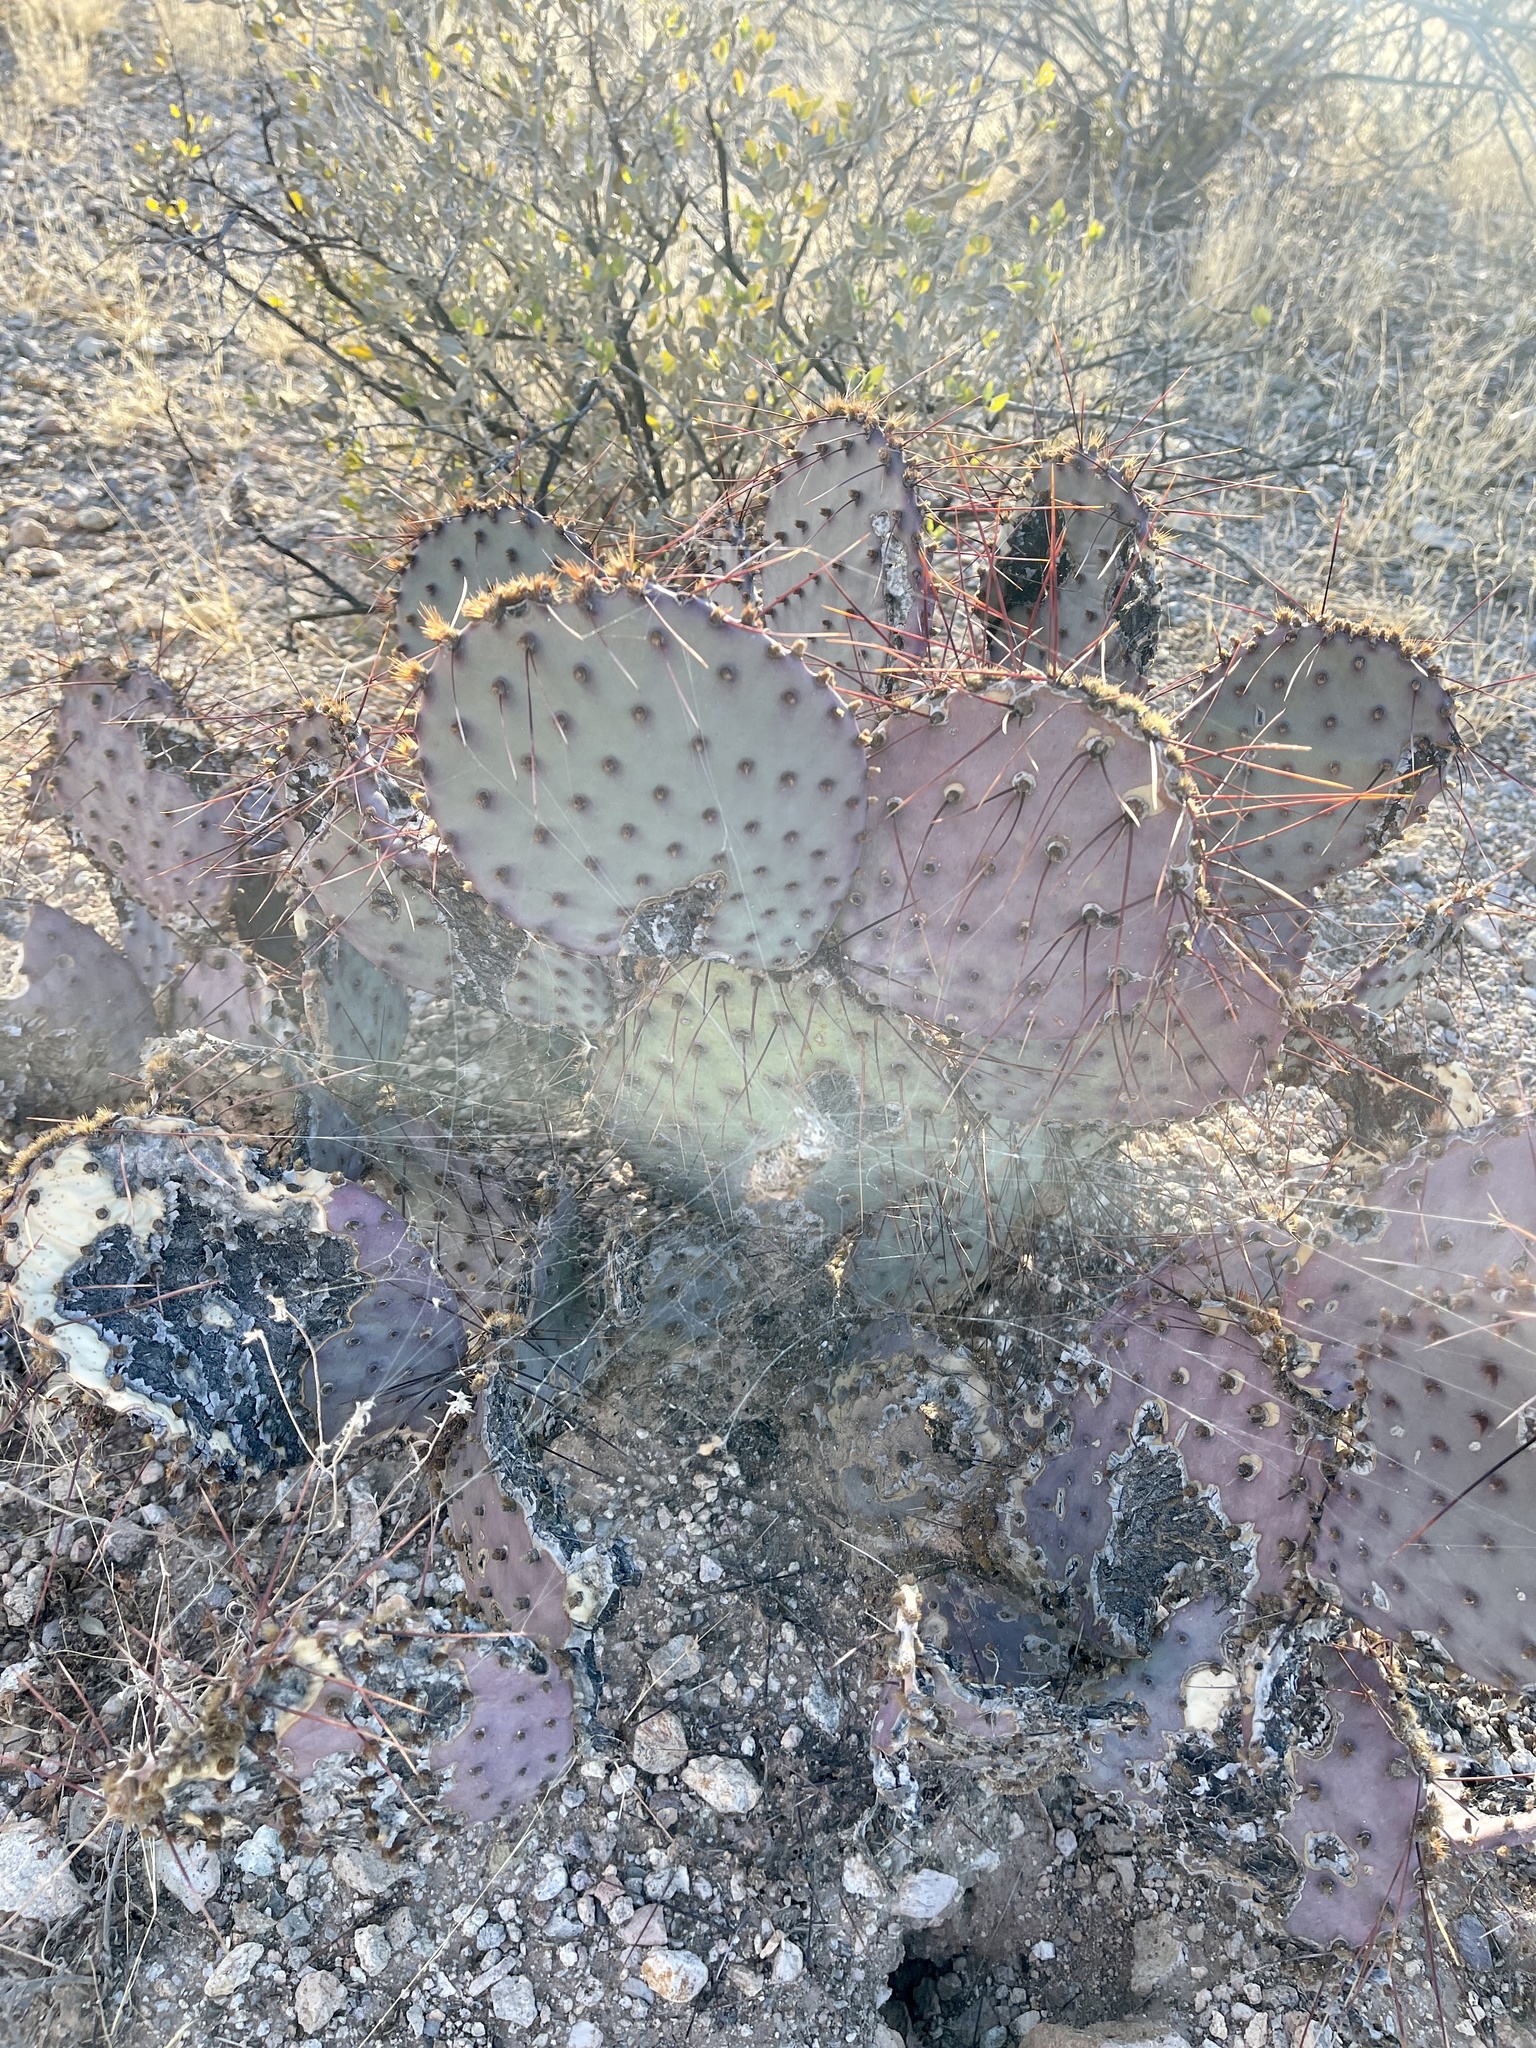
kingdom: Plantae
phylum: Tracheophyta
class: Magnoliopsida
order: Caryophyllales
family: Cactaceae
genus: Opuntia
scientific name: Opuntia macrocentra
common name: Purple prickly-pear
